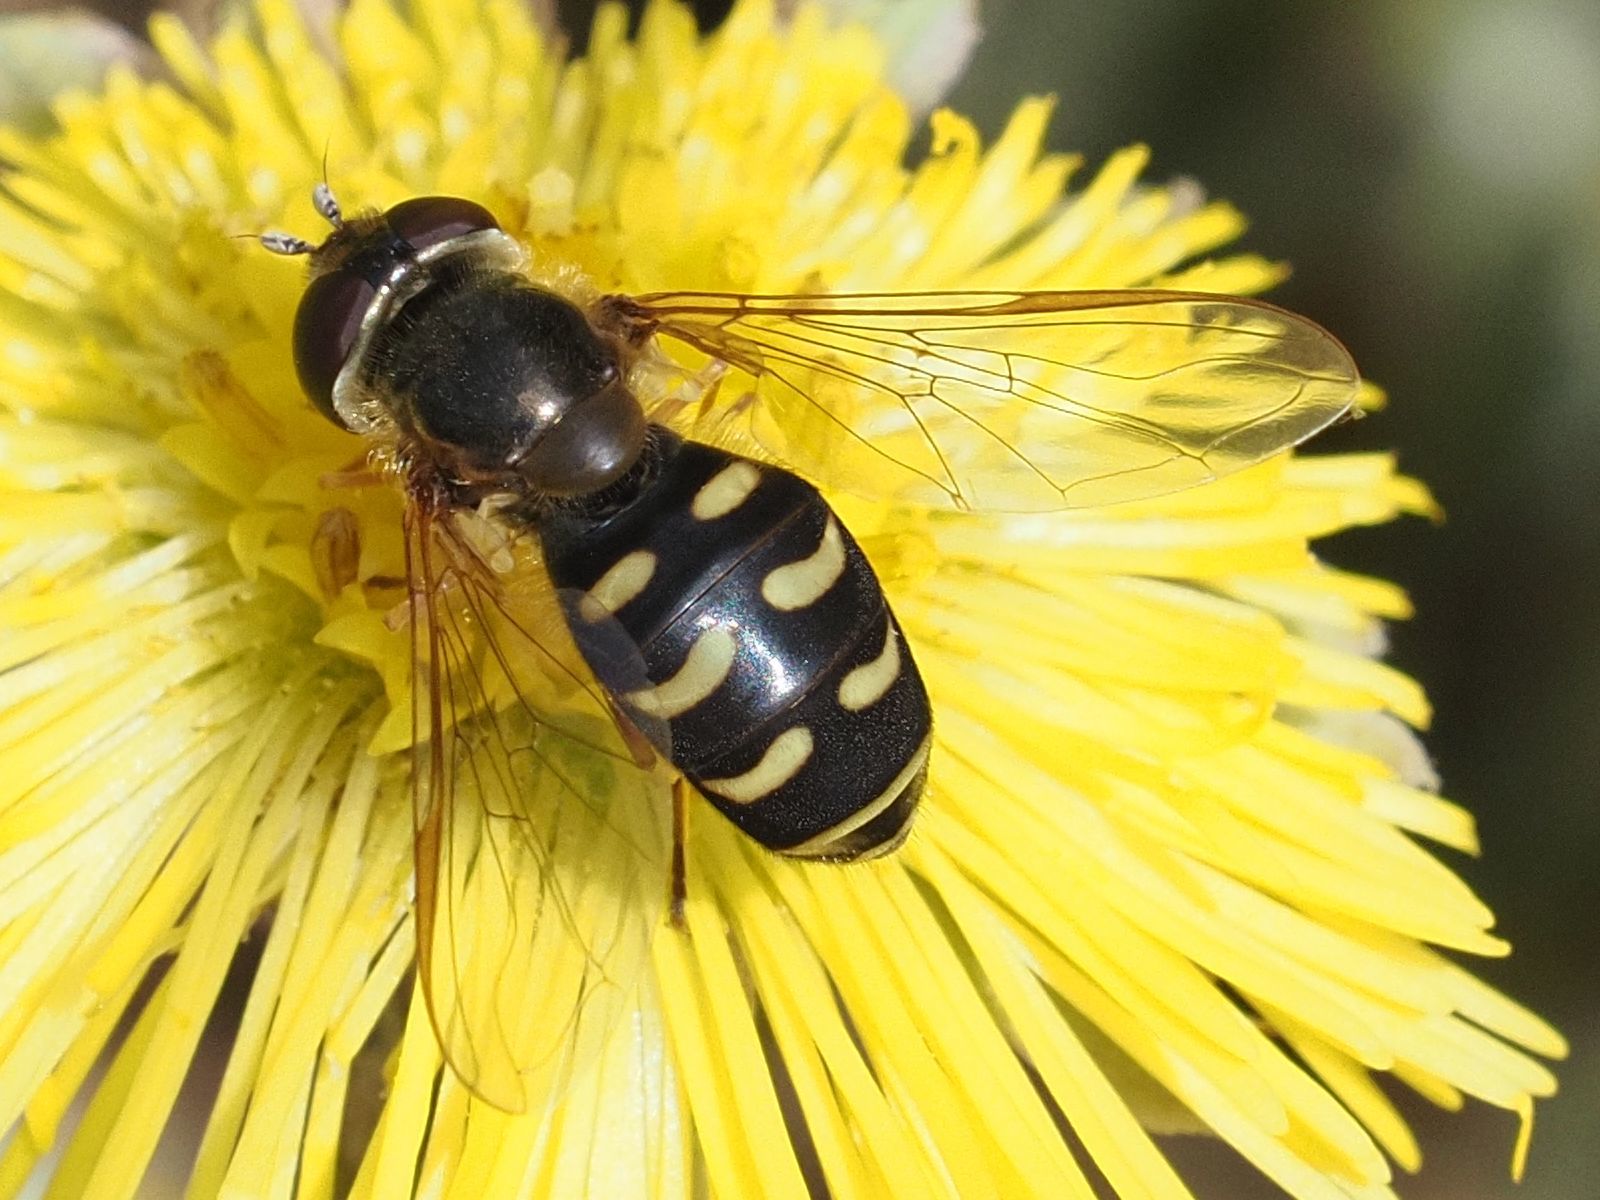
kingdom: Animalia
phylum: Arthropoda
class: Insecta
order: Diptera
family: Syrphidae
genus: Lapposyrphus
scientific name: Lapposyrphus lapponicus
